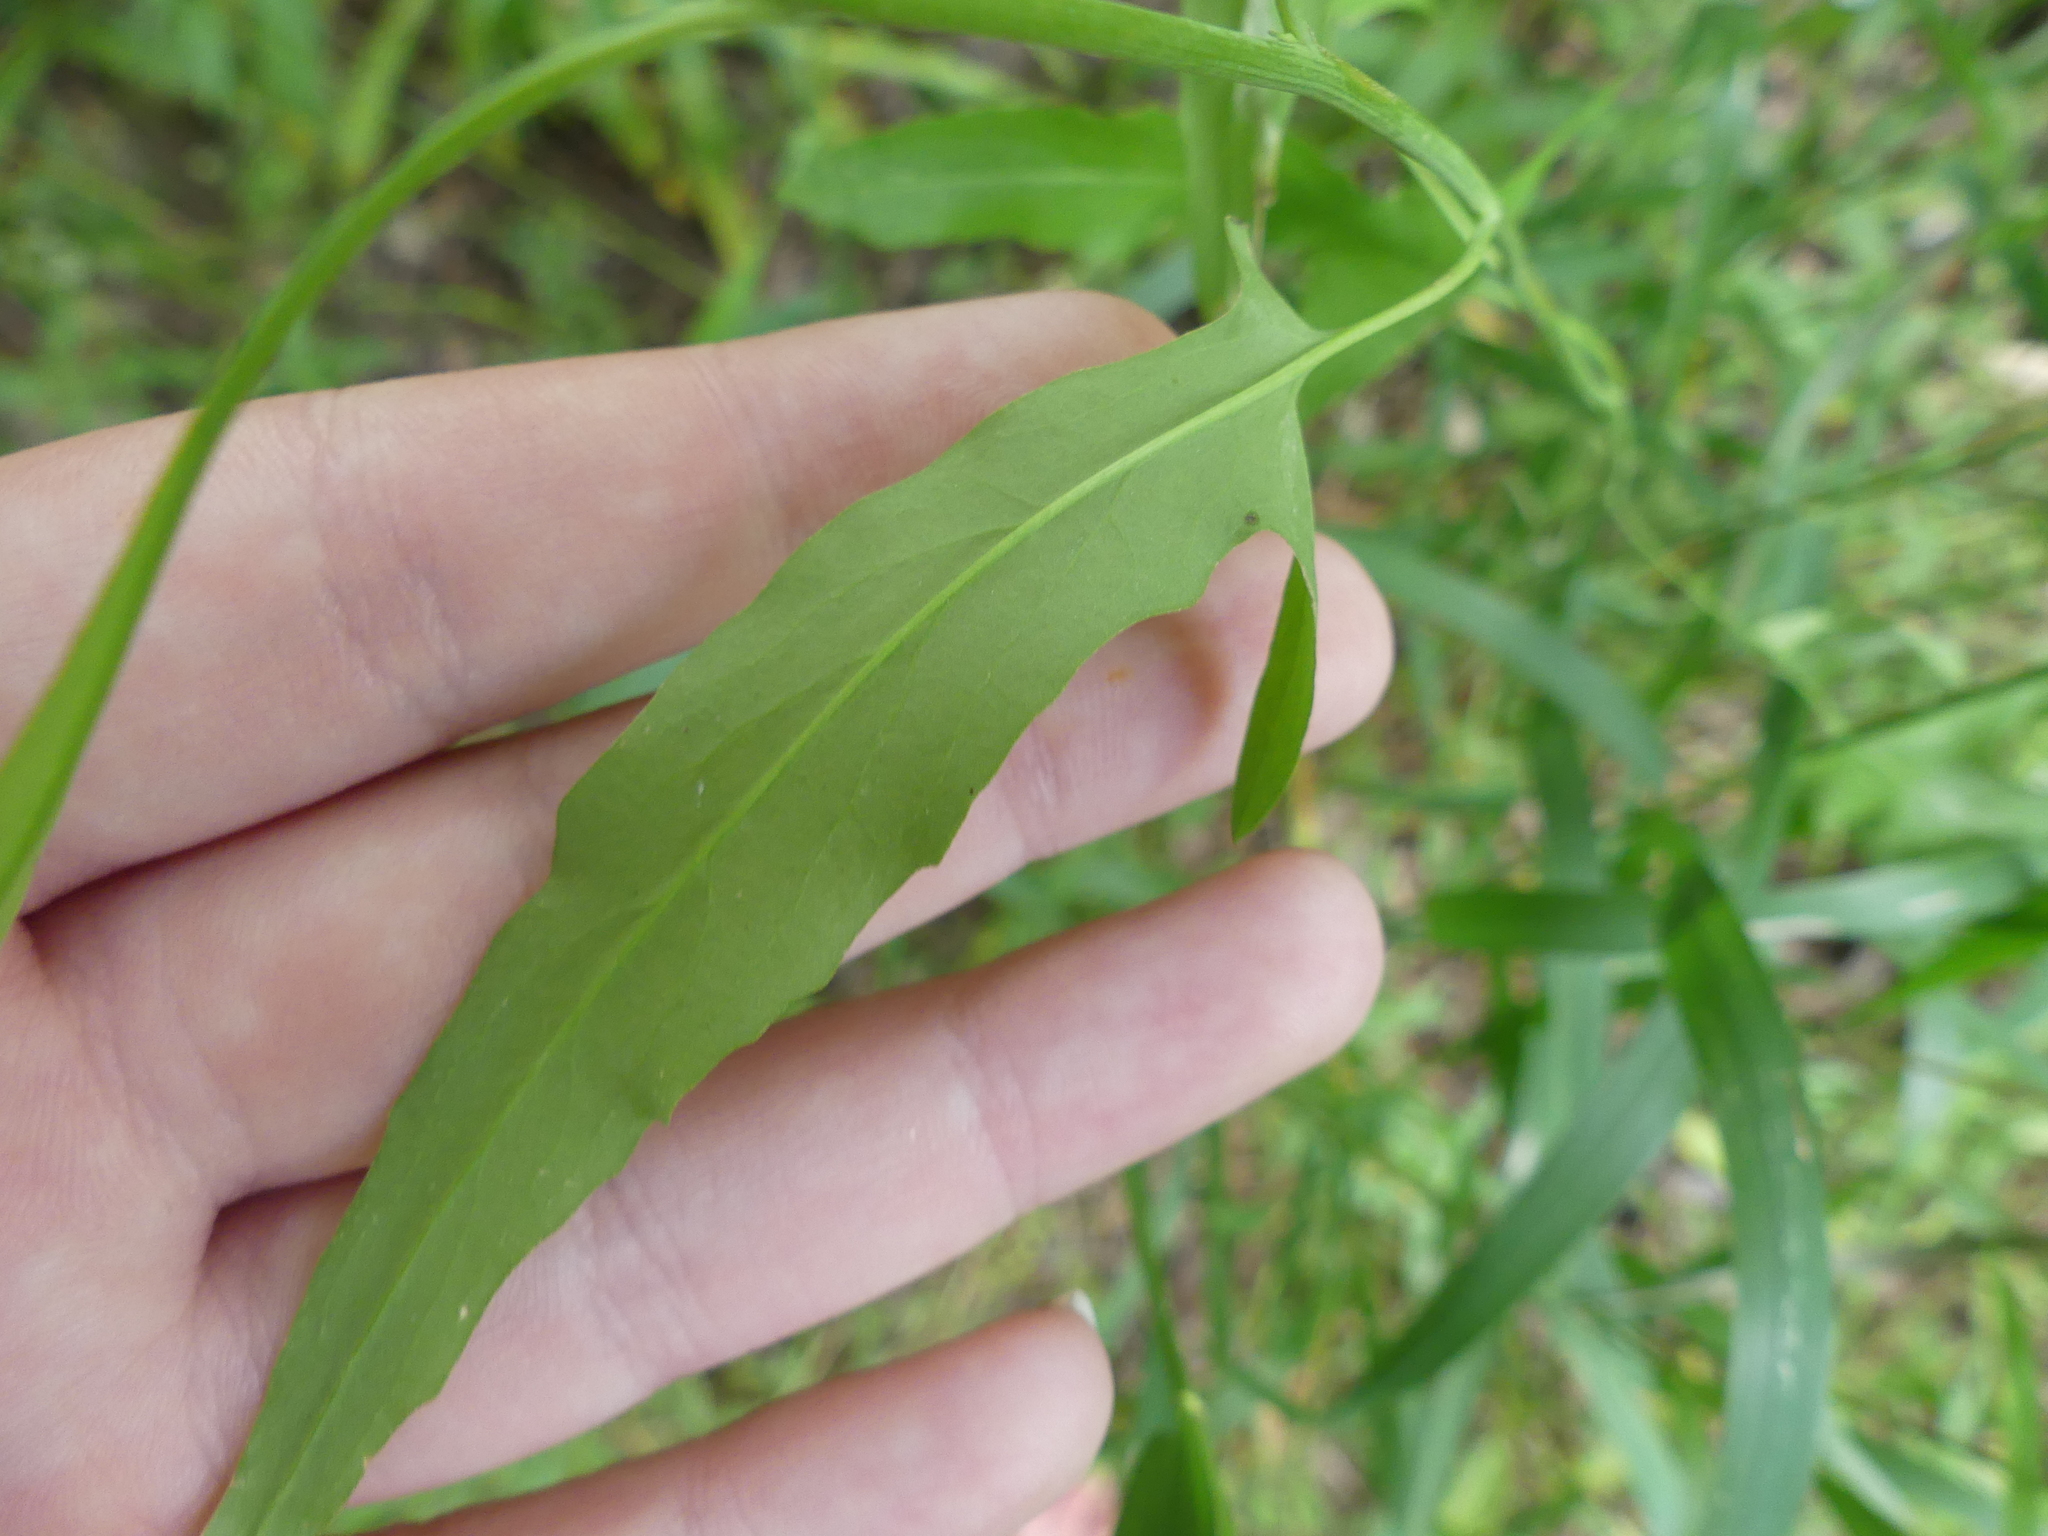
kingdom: Plantae
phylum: Tracheophyta
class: Magnoliopsida
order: Brassicales
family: Brassicaceae
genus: Streptanthus
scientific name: Streptanthus petiolaris
